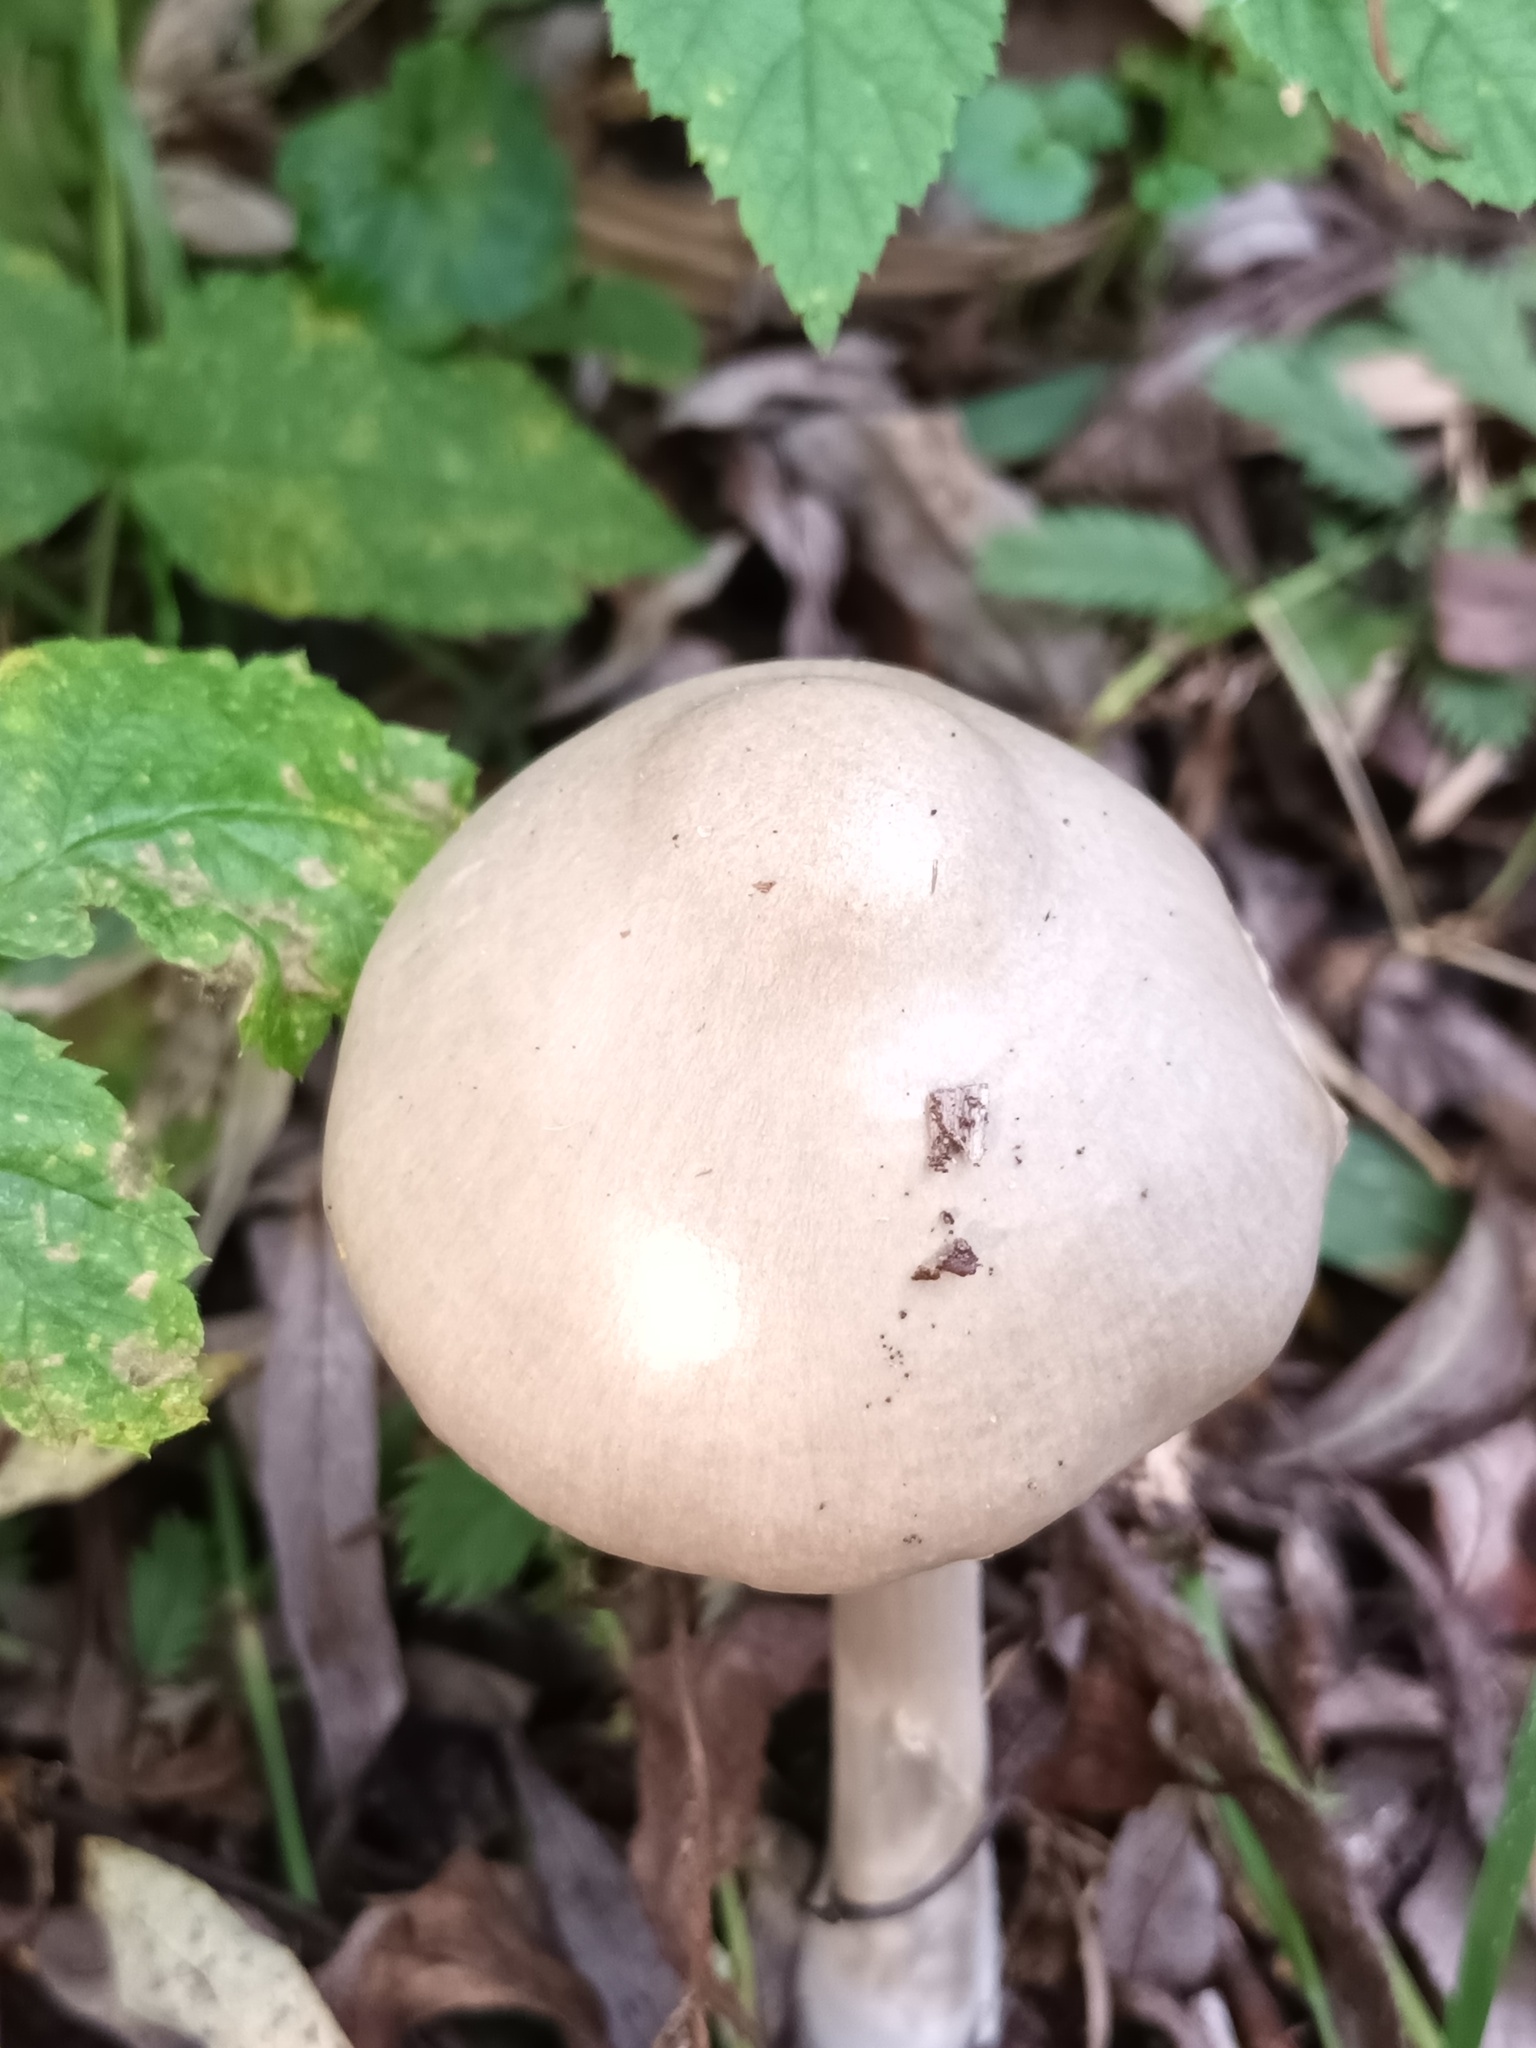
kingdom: Fungi
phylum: Basidiomycota
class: Agaricomycetes
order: Agaricales
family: Pluteaceae
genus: Volvopluteus
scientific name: Volvopluteus gloiocephalus
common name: Stubble rosegill
